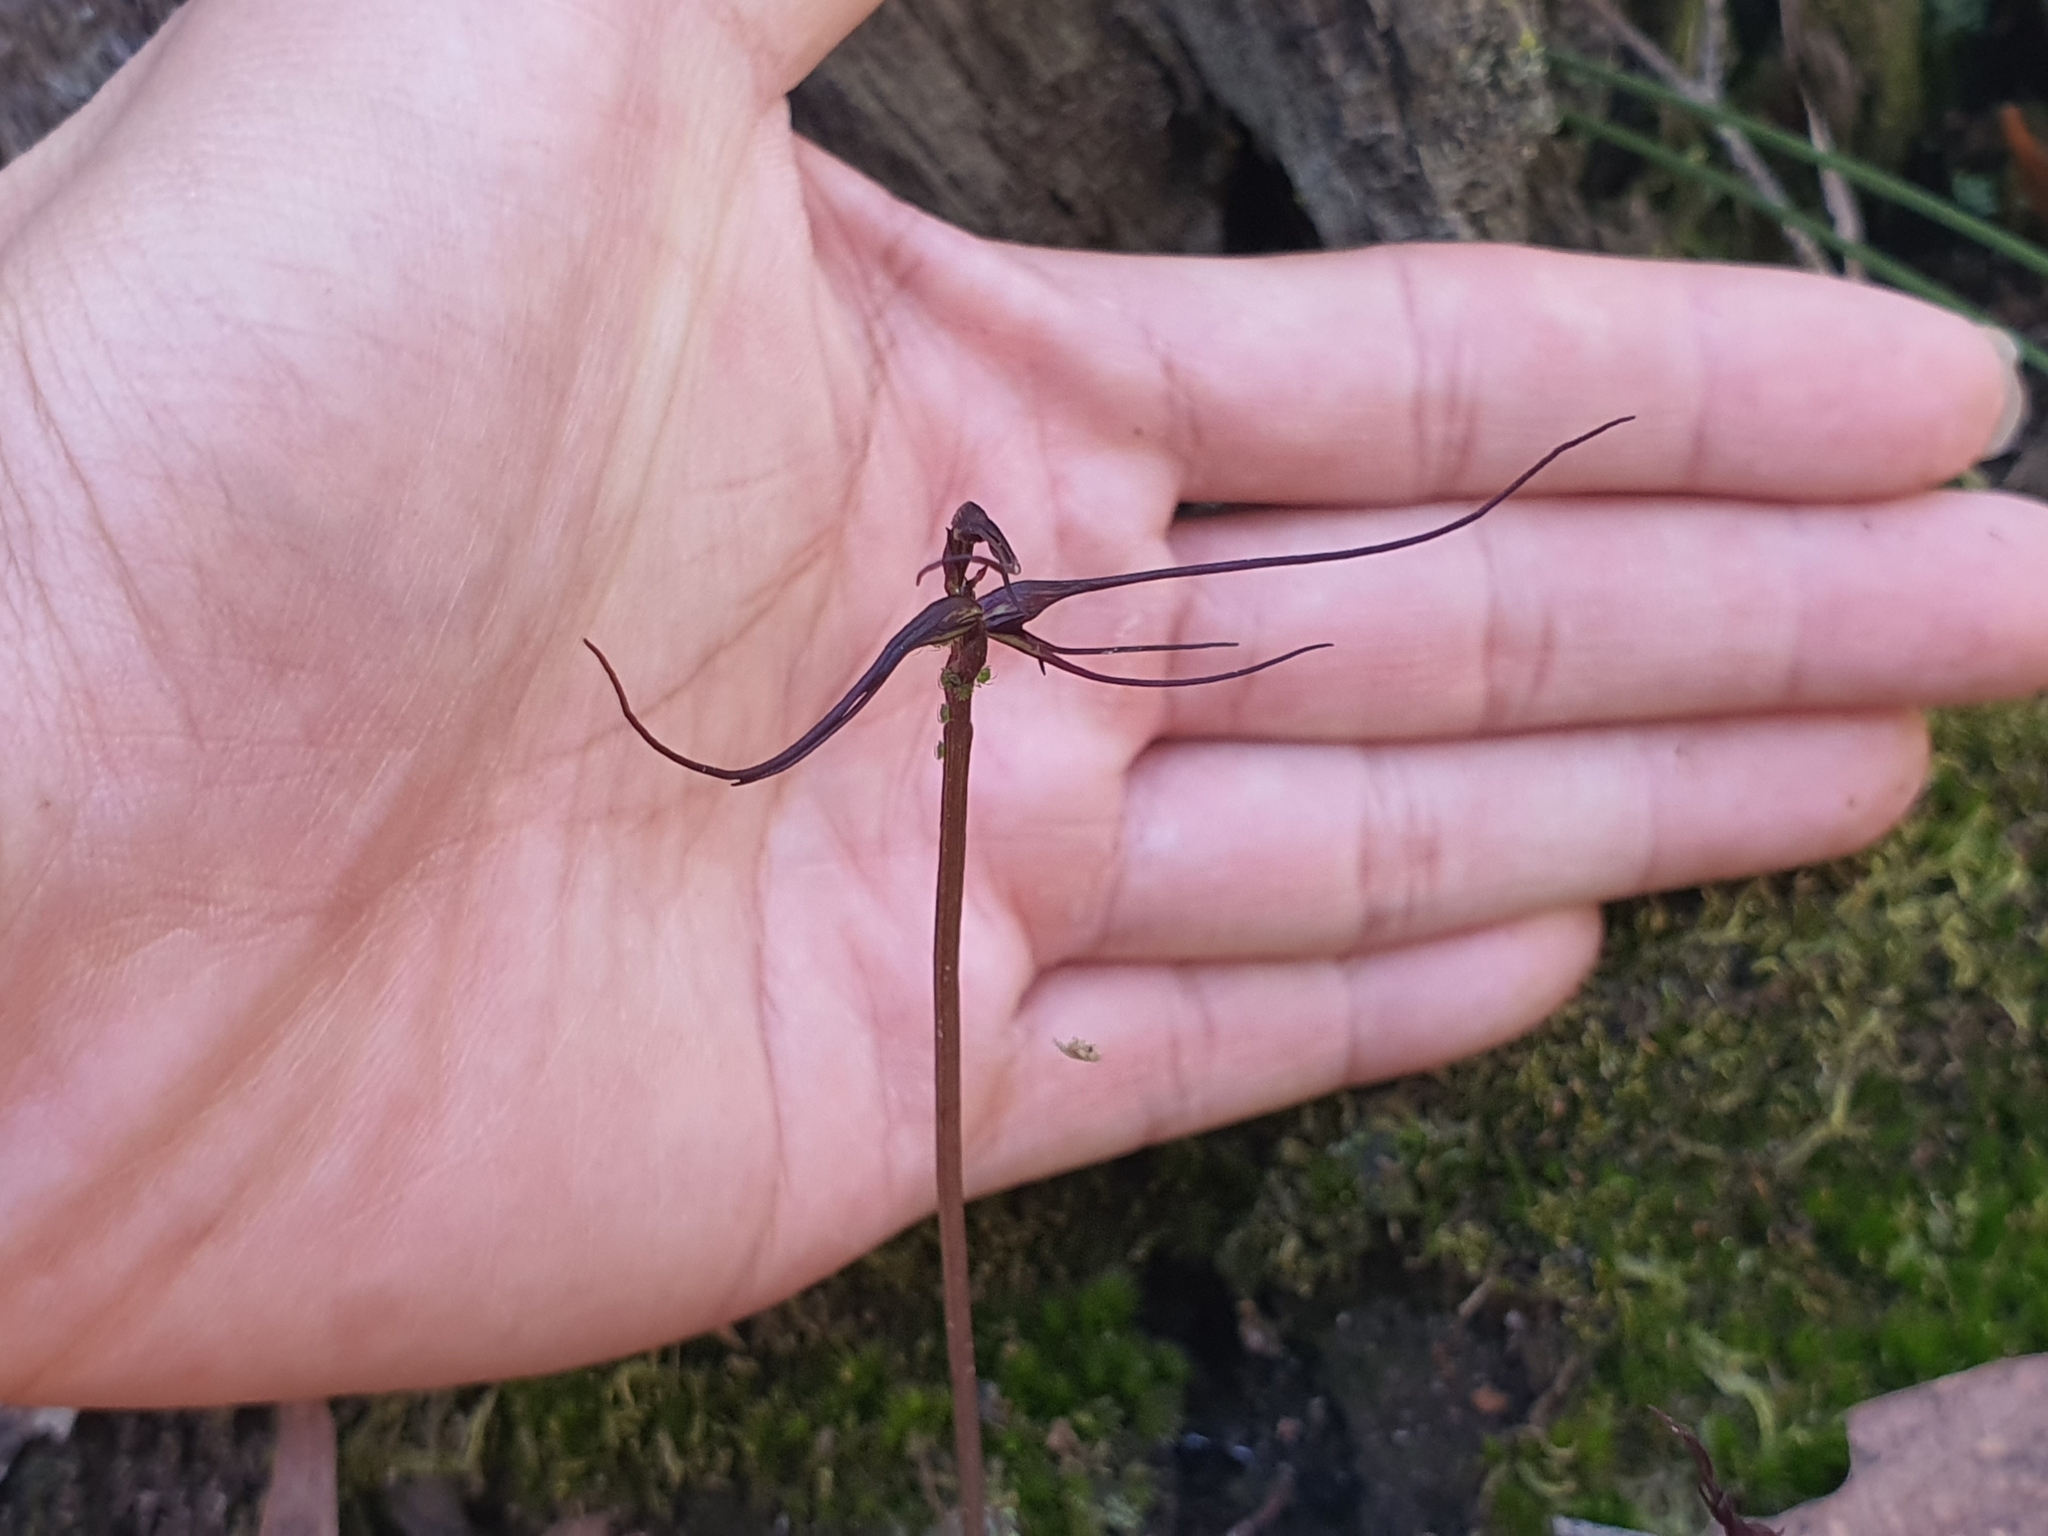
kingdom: Plantae
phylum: Tracheophyta
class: Liliopsida
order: Asparagales
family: Orchidaceae
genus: Acianthus
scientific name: Acianthus caudatus
